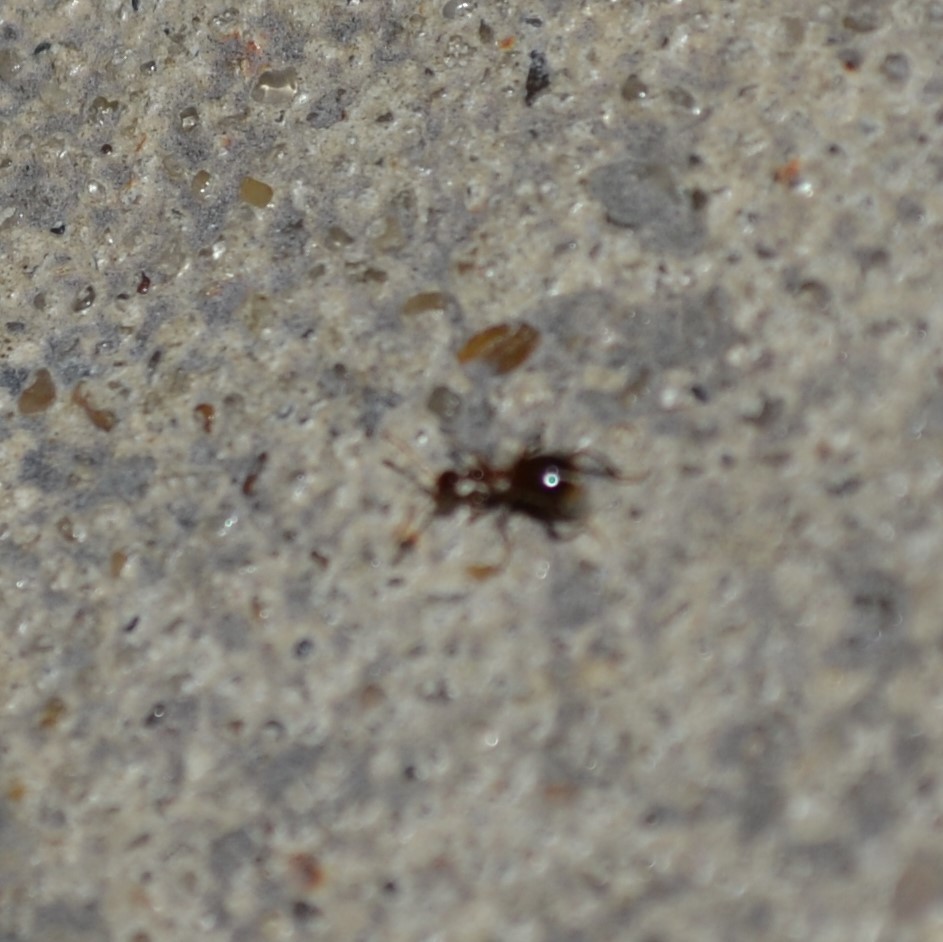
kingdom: Animalia
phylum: Arthropoda
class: Insecta
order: Coleoptera
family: Anthicidae
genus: Acanthinus
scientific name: Acanthinus
